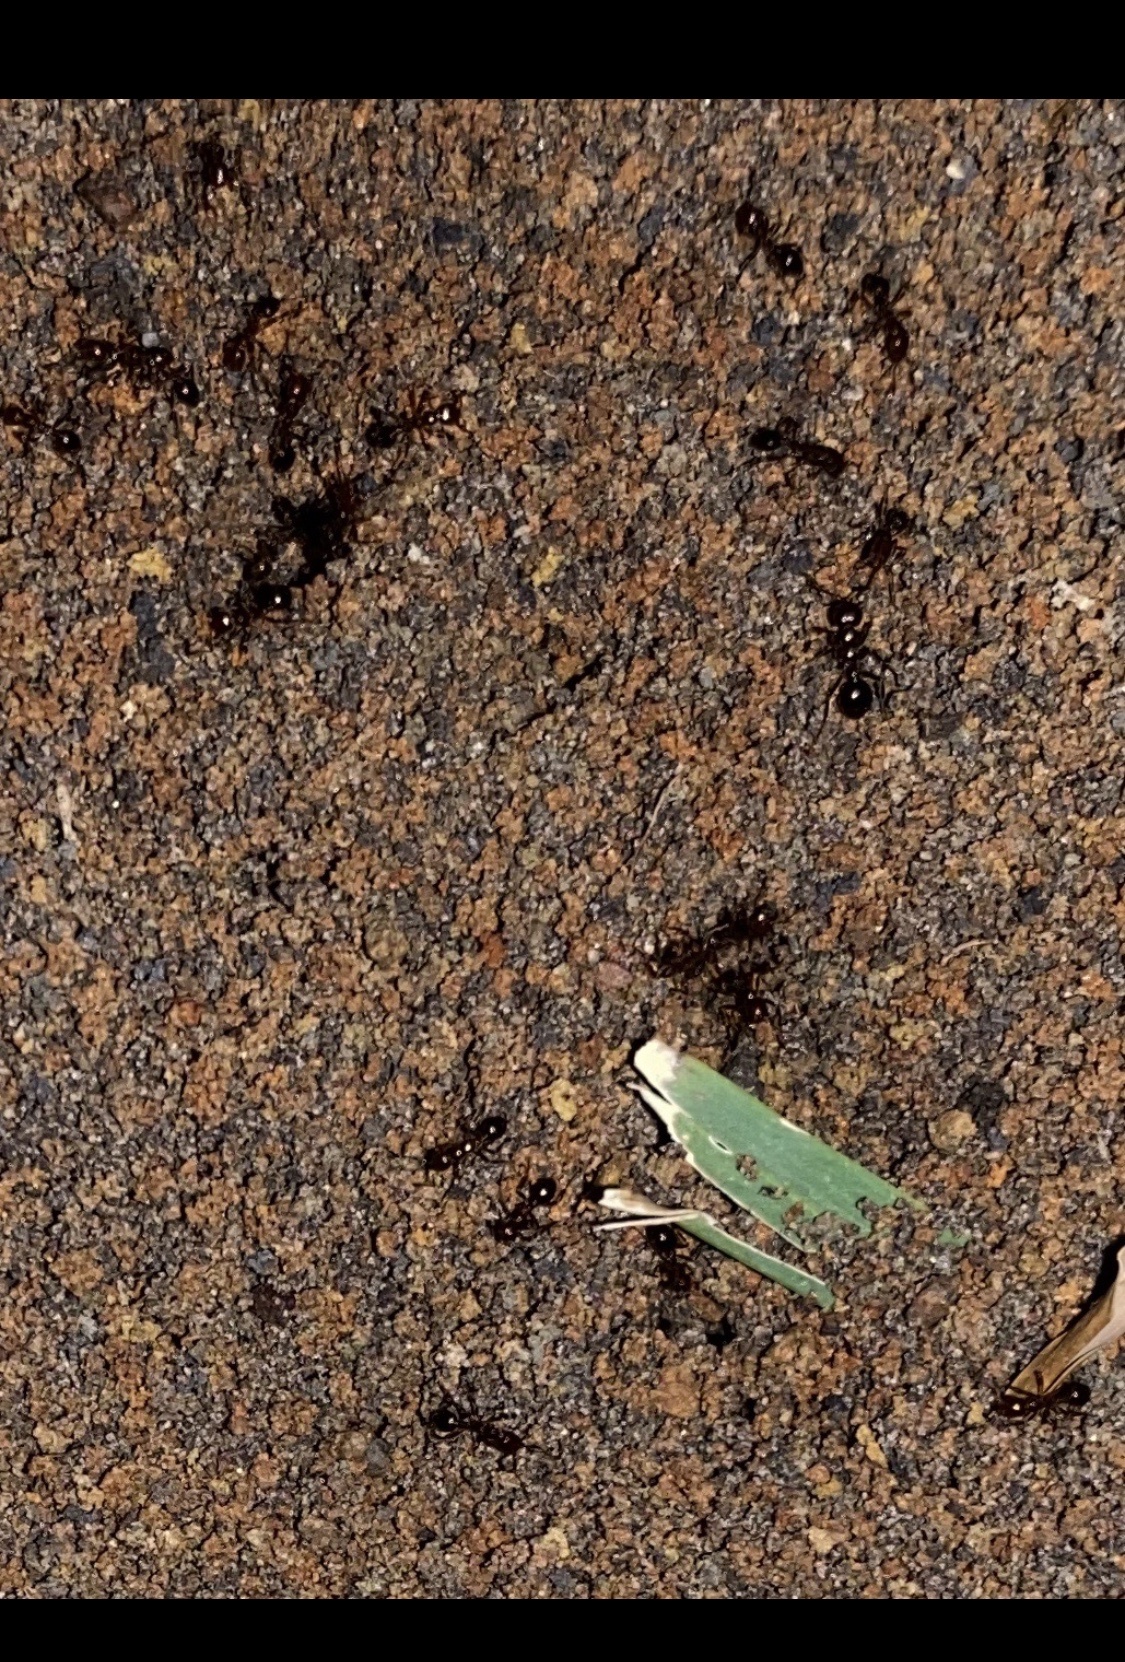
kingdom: Animalia
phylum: Arthropoda
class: Insecta
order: Hymenoptera
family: Formicidae
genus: Solenopsis
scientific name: Solenopsis invicta
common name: Red imported fire ant
